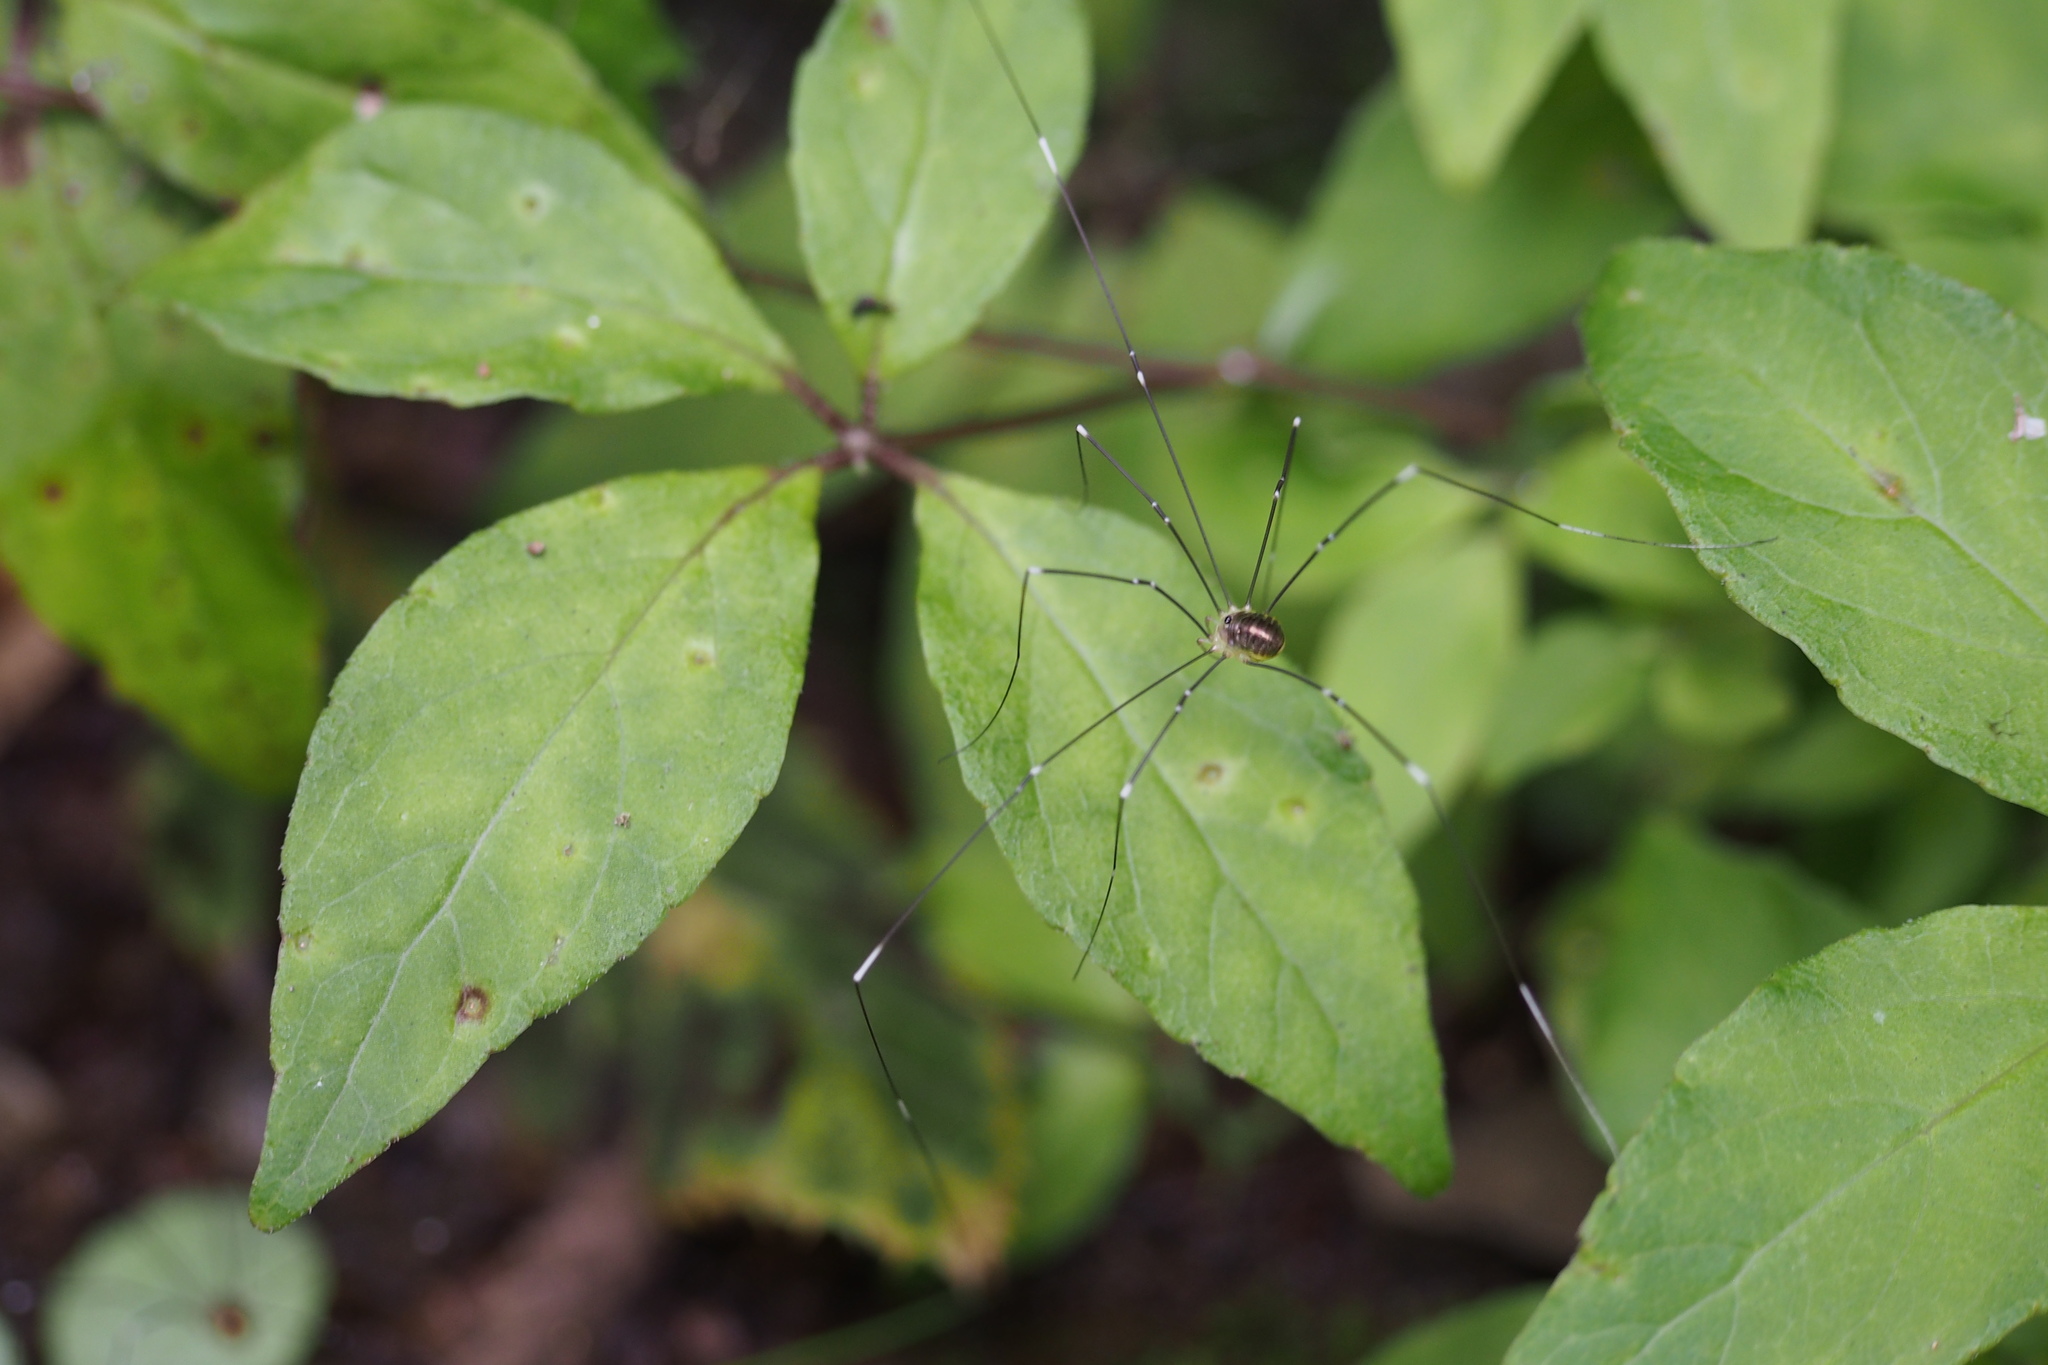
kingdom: Animalia
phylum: Arthropoda
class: Arachnida
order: Opiliones
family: Sclerosomatidae
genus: Leiobunum
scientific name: Leiobunum japonicum
